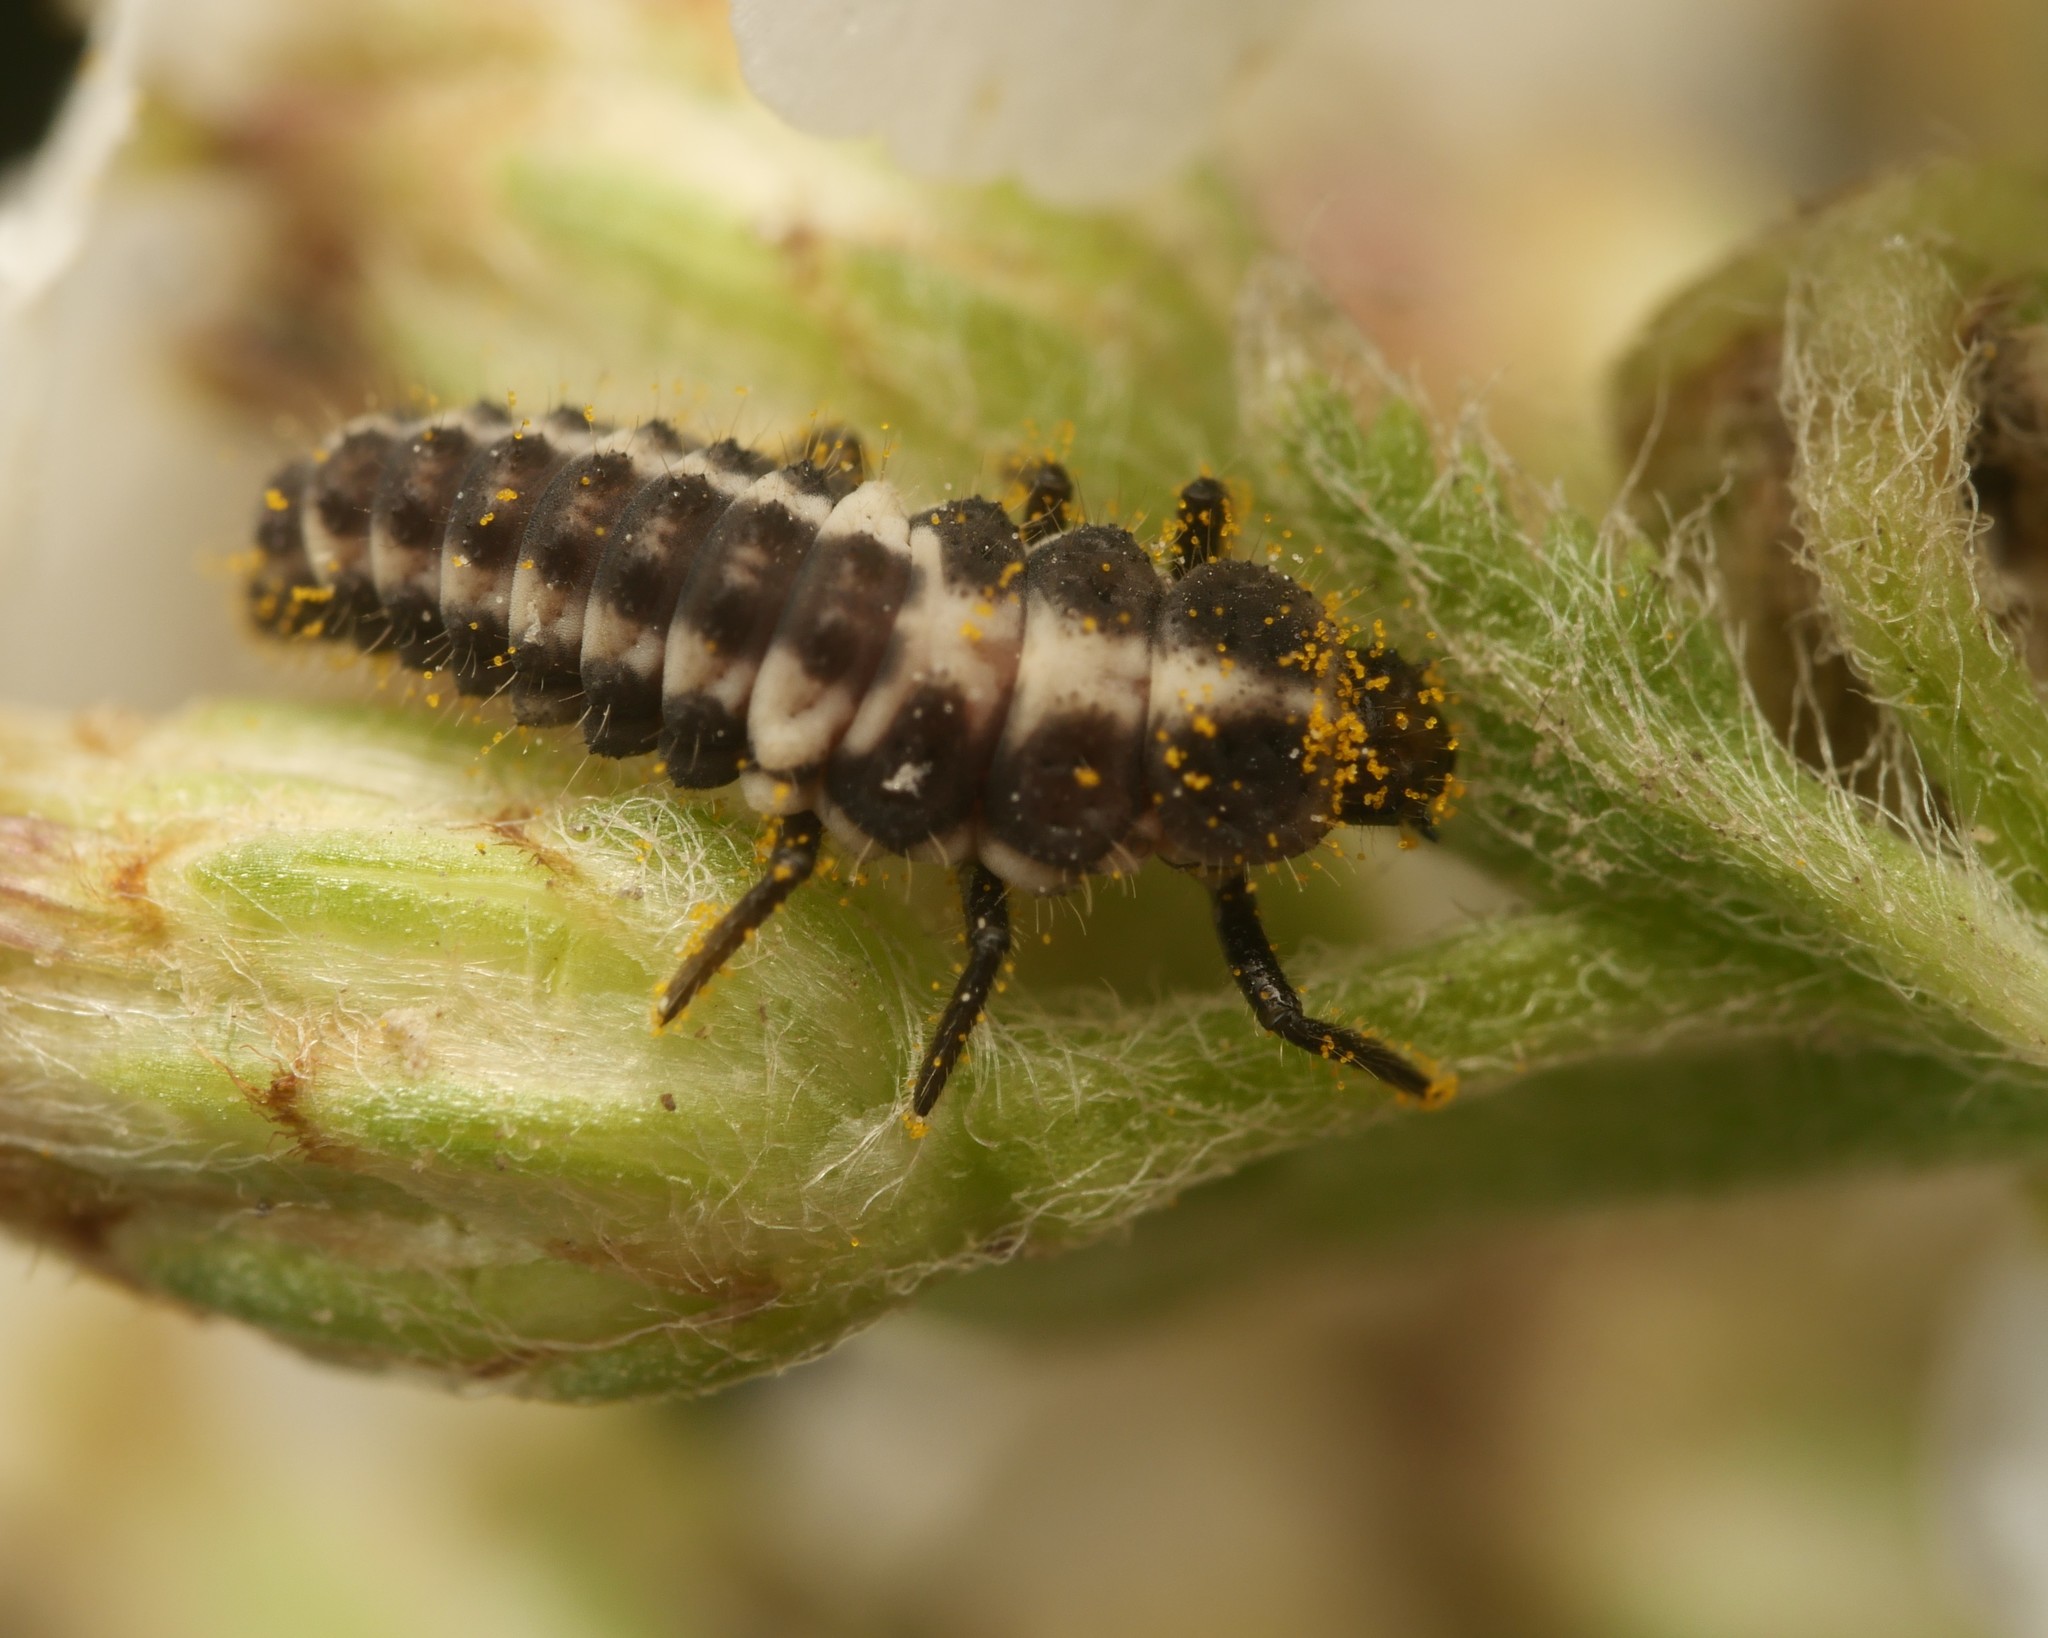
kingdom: Animalia
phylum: Arthropoda
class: Insecta
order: Coleoptera
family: Coccinellidae
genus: Coccinula
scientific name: Coccinula quatuordecimpustulata
